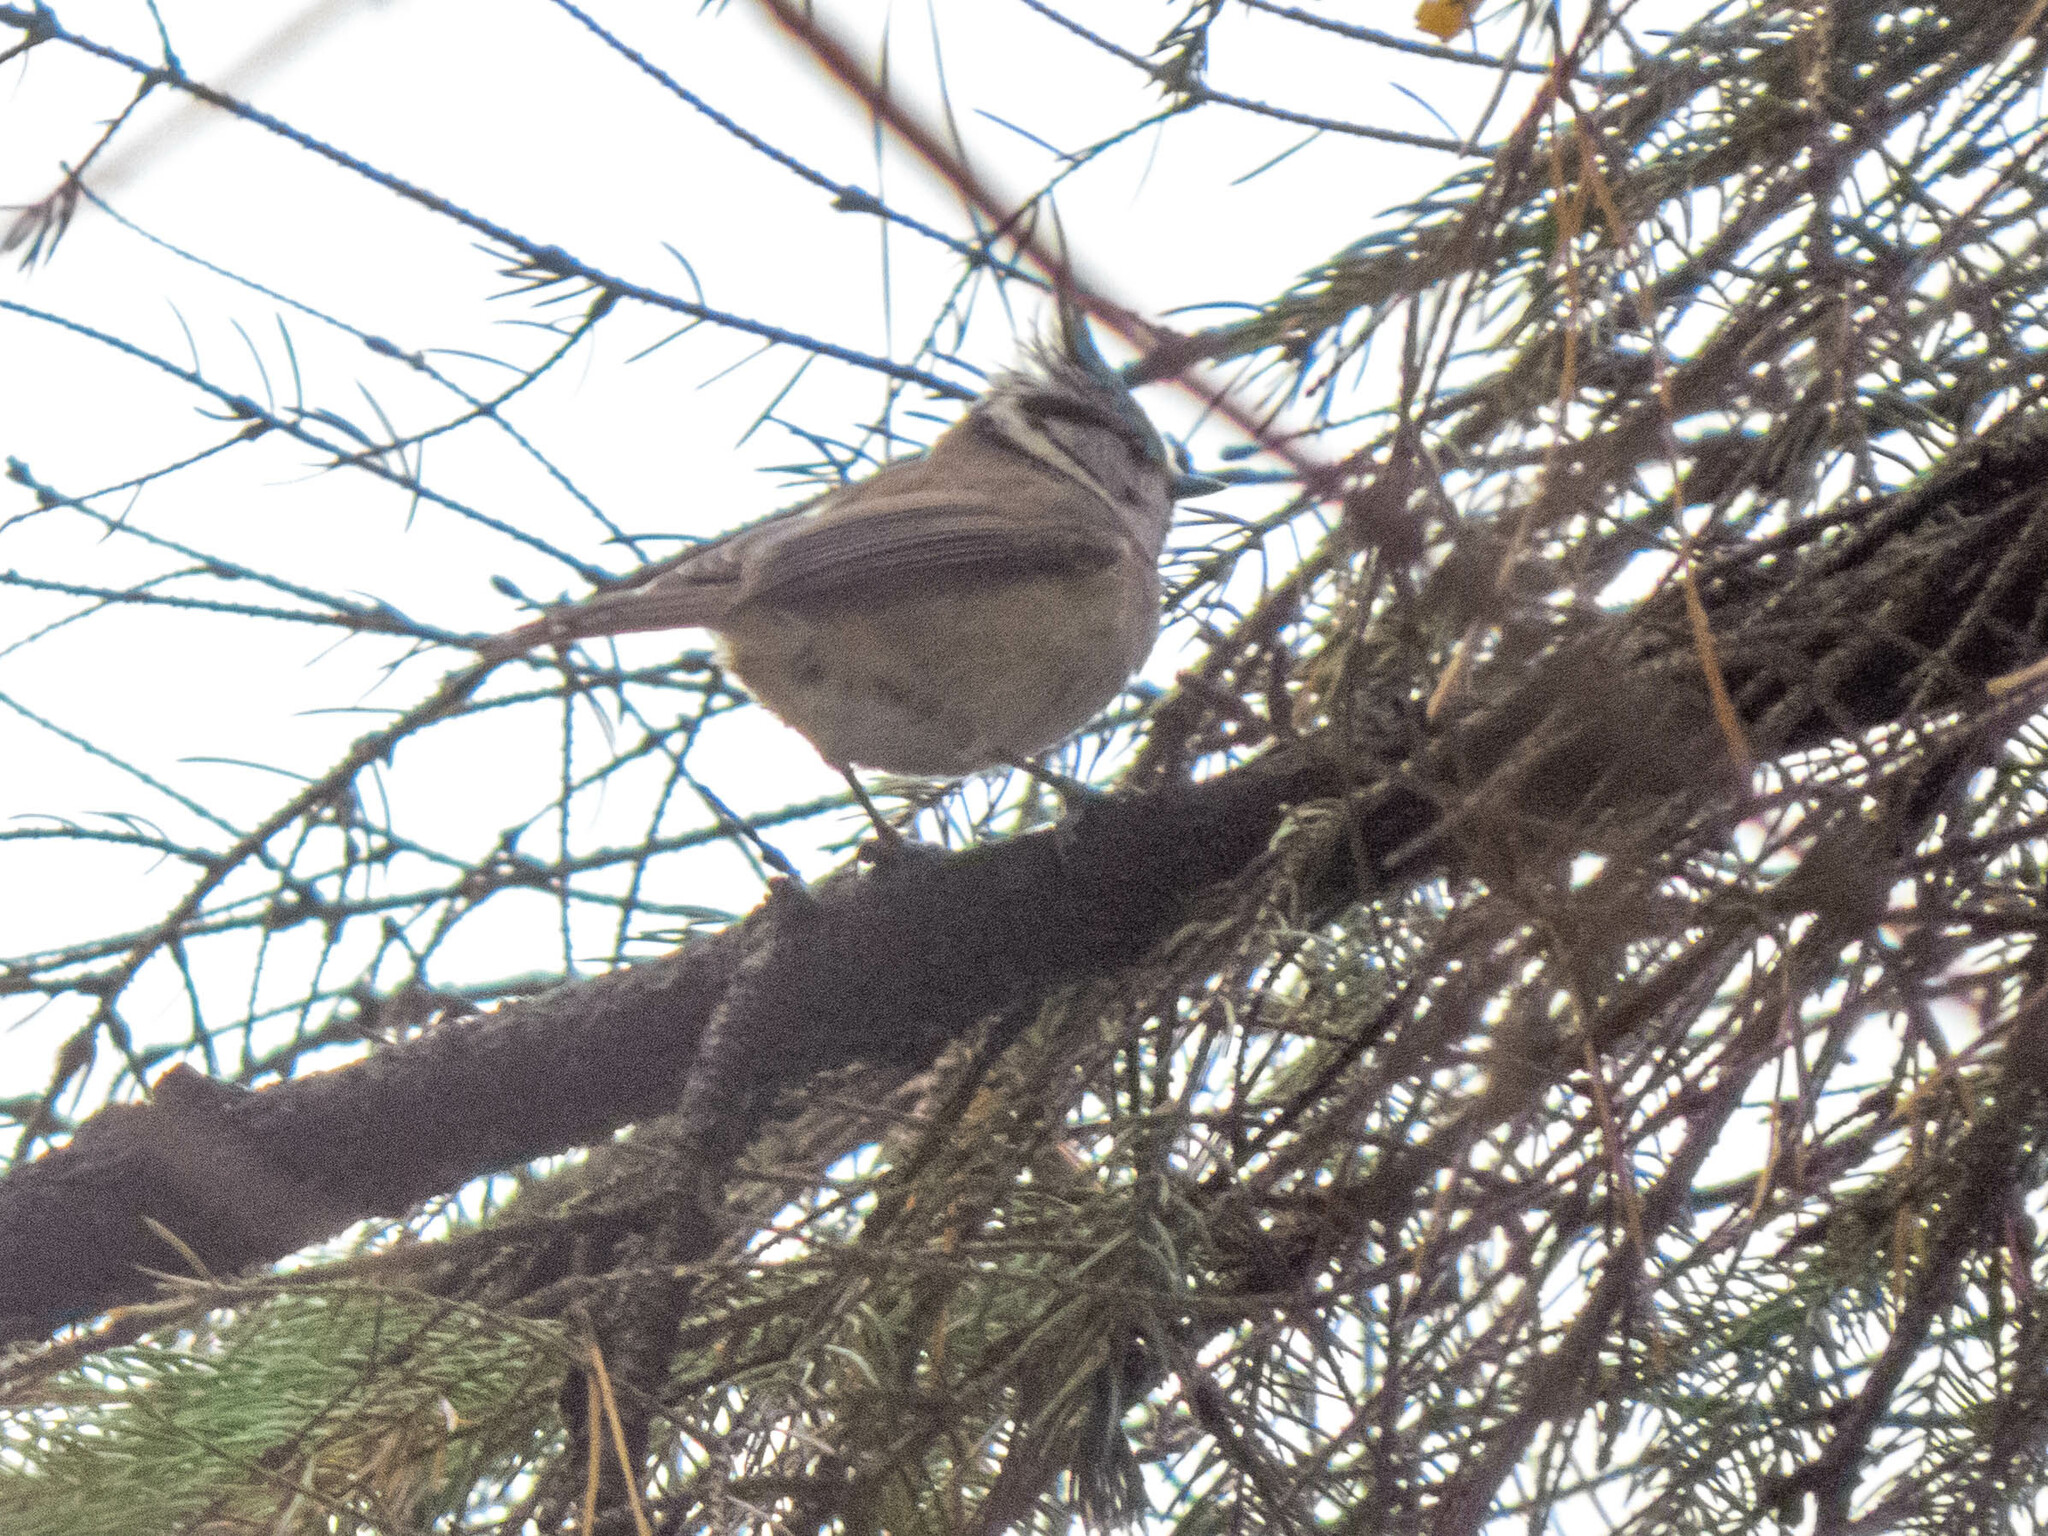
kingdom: Animalia
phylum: Chordata
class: Aves
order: Passeriformes
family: Paridae
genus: Lophophanes
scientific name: Lophophanes cristatus
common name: European crested tit
